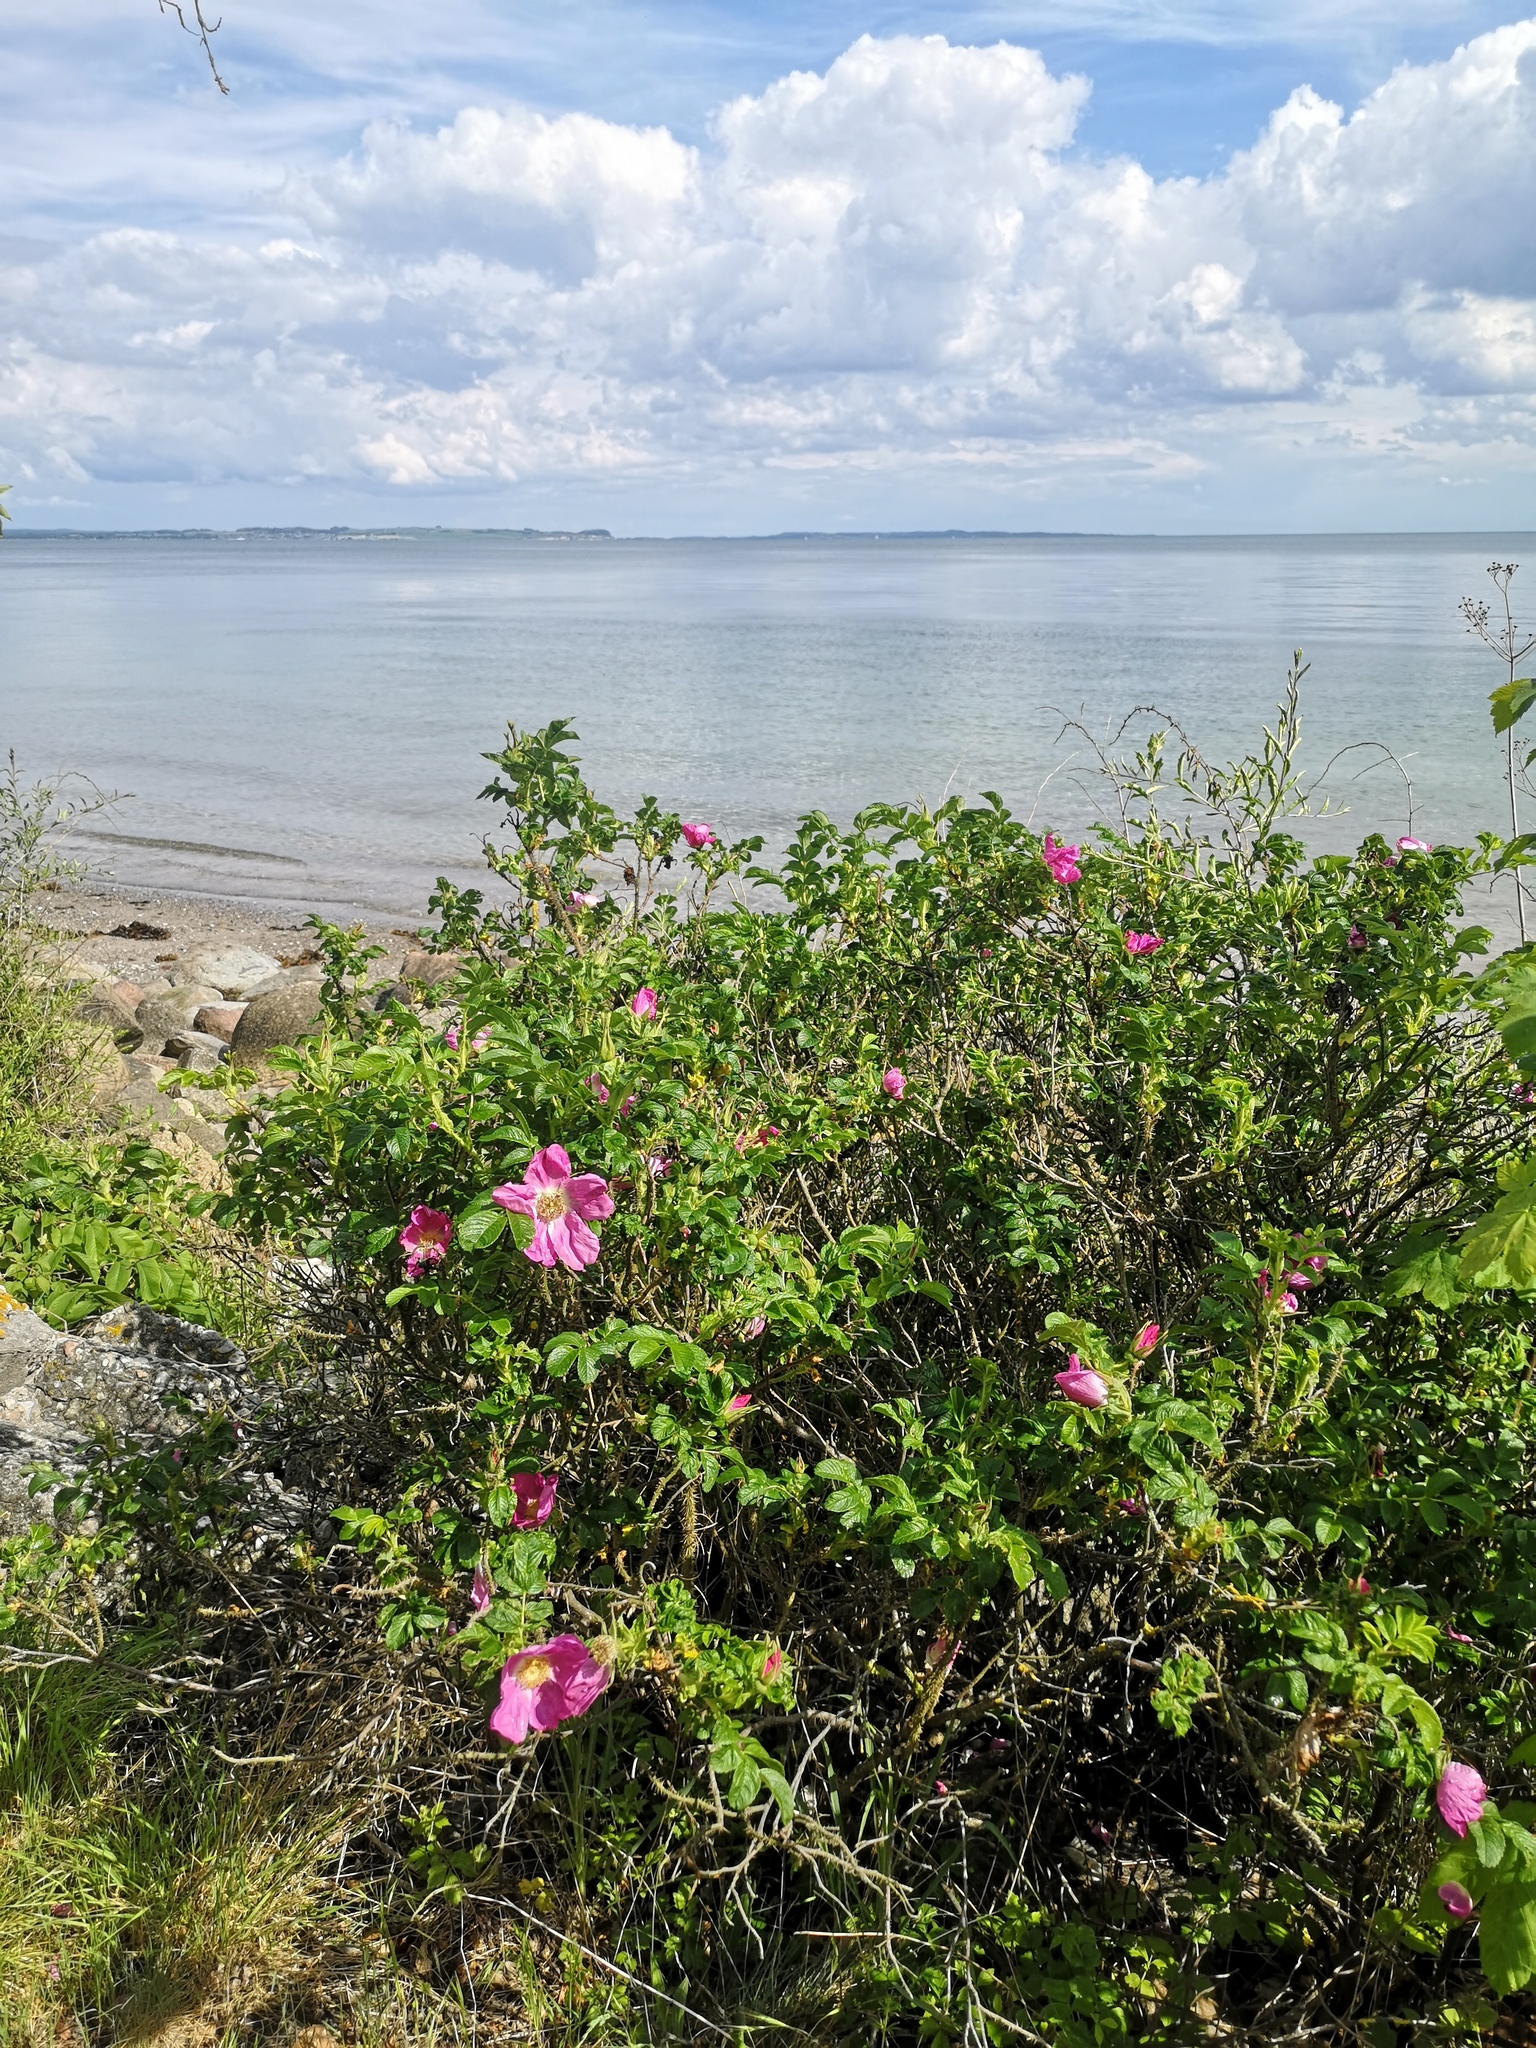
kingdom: Plantae
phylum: Tracheophyta
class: Magnoliopsida
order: Rosales
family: Rosaceae
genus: Rosa
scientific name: Rosa rugosa
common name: Japanese rose
